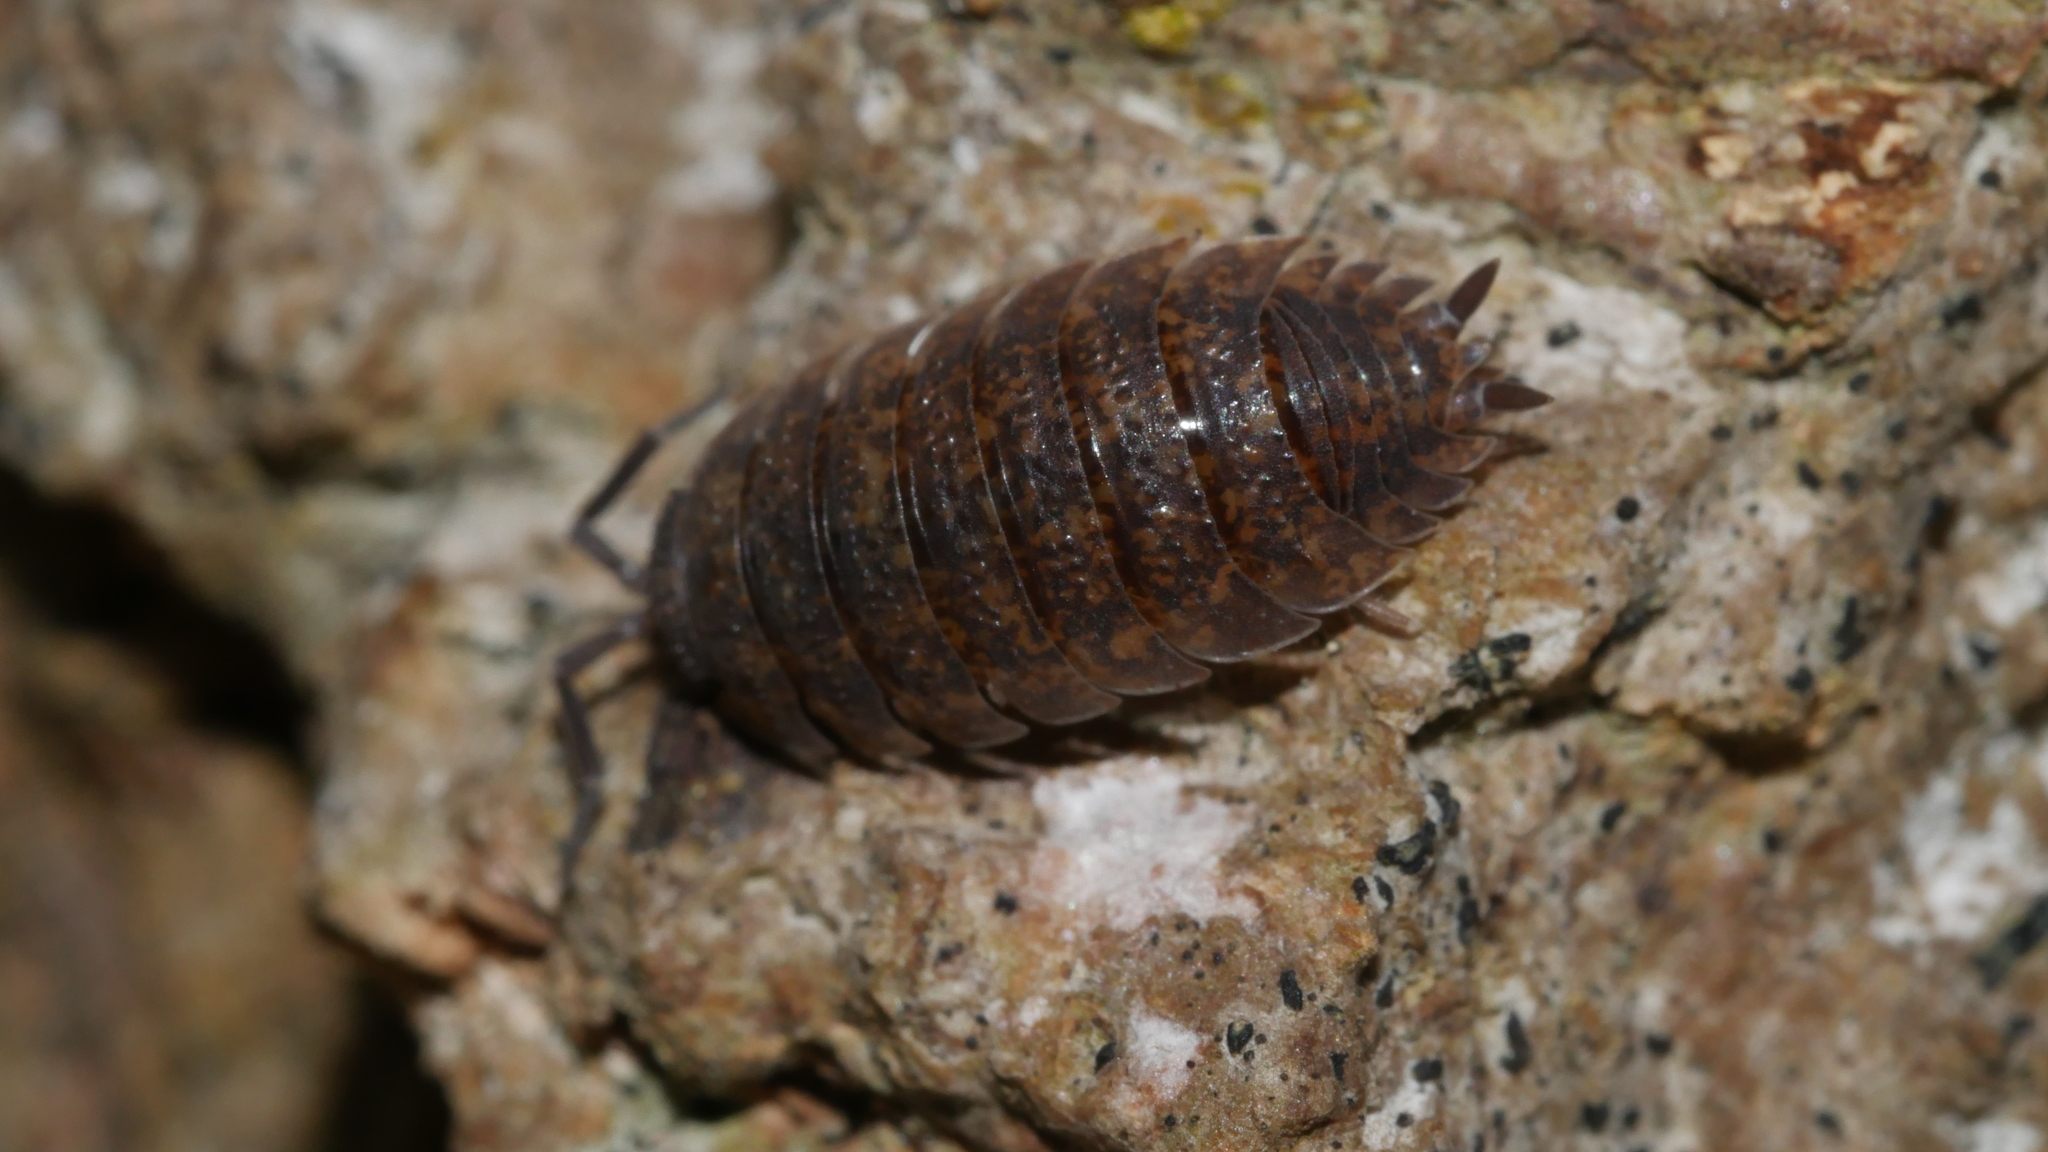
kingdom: Animalia
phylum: Arthropoda
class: Malacostraca
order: Isopoda
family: Porcellionidae
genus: Porcellio
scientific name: Porcellio scaber
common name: Common rough woodlouse
